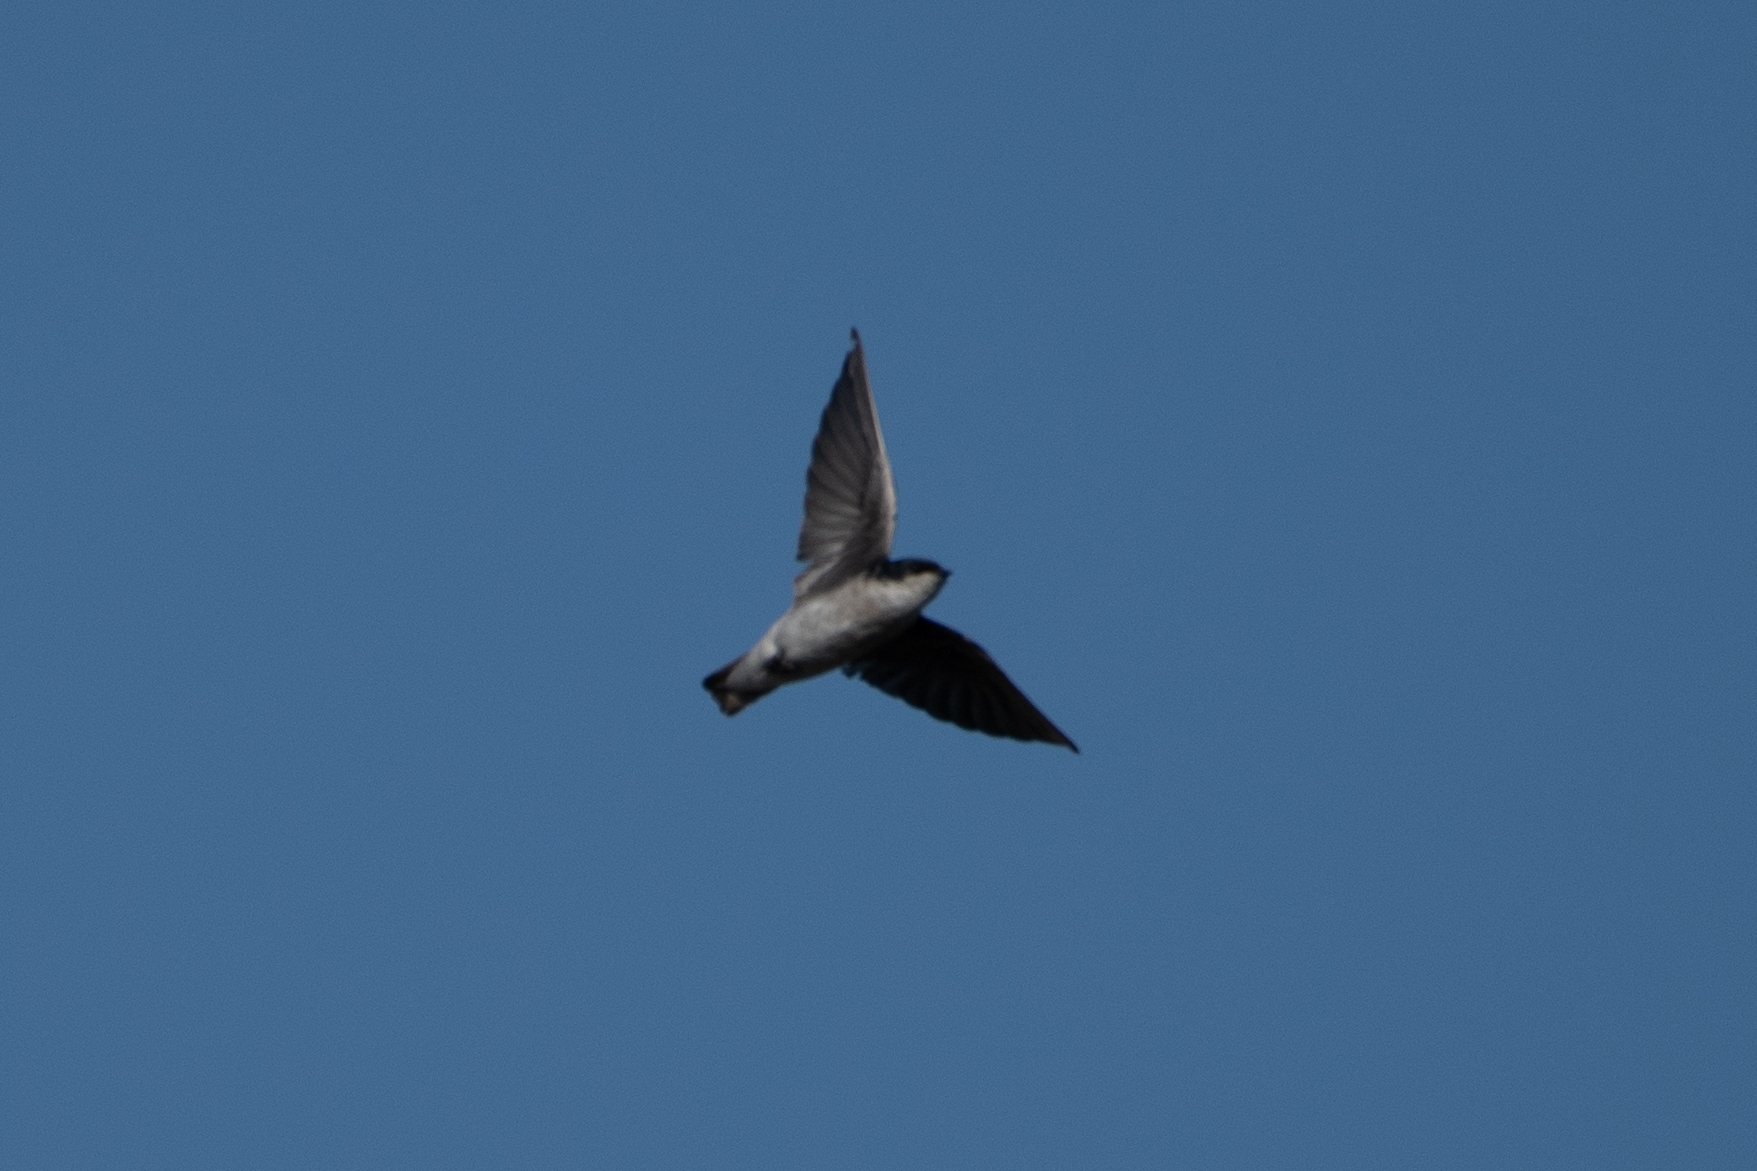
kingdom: Animalia
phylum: Chordata
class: Aves
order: Passeriformes
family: Hirundinidae
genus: Tachycineta
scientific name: Tachycineta bicolor
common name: Tree swallow
